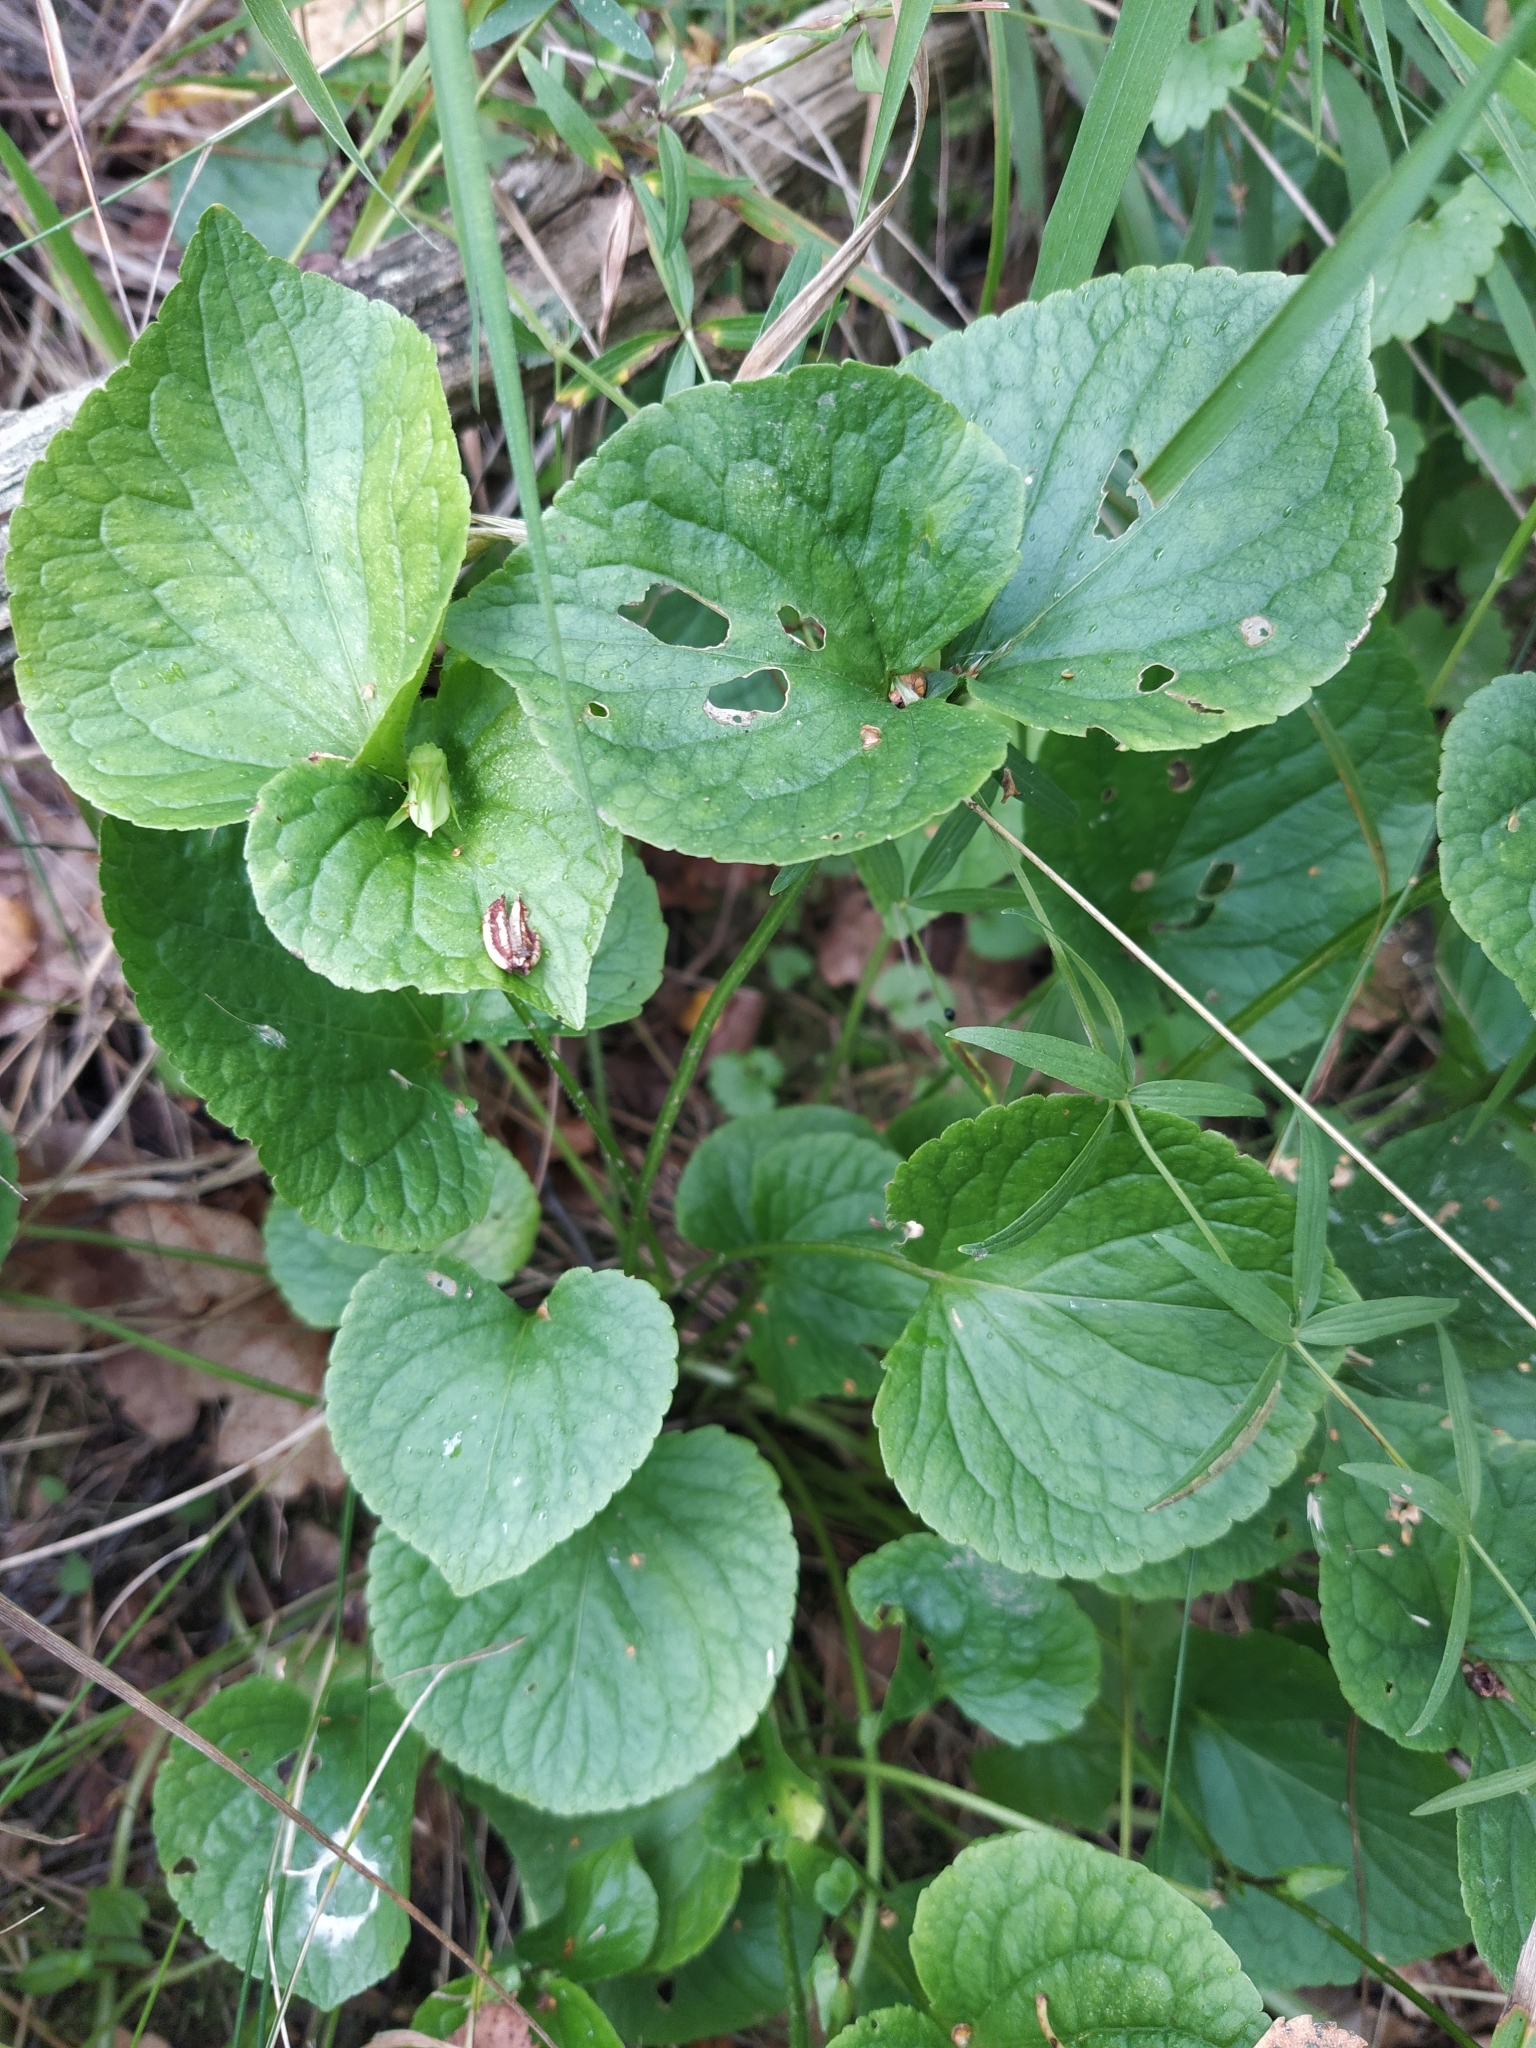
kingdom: Plantae
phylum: Tracheophyta
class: Magnoliopsida
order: Malpighiales
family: Violaceae
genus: Viola
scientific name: Viola mirabilis
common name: Wonder violet
